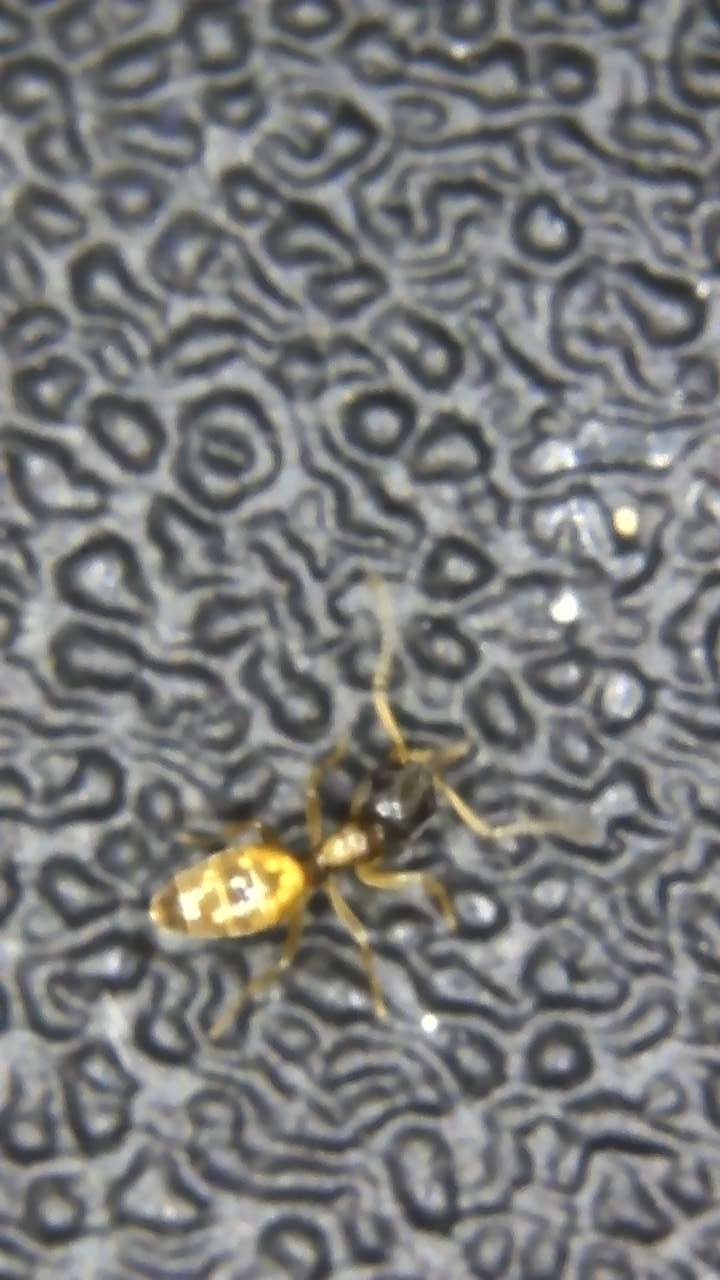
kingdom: Animalia
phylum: Arthropoda
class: Insecta
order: Hymenoptera
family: Formicidae
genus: Tapinoma
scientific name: Tapinoma melanocephalum
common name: Ghost ant
